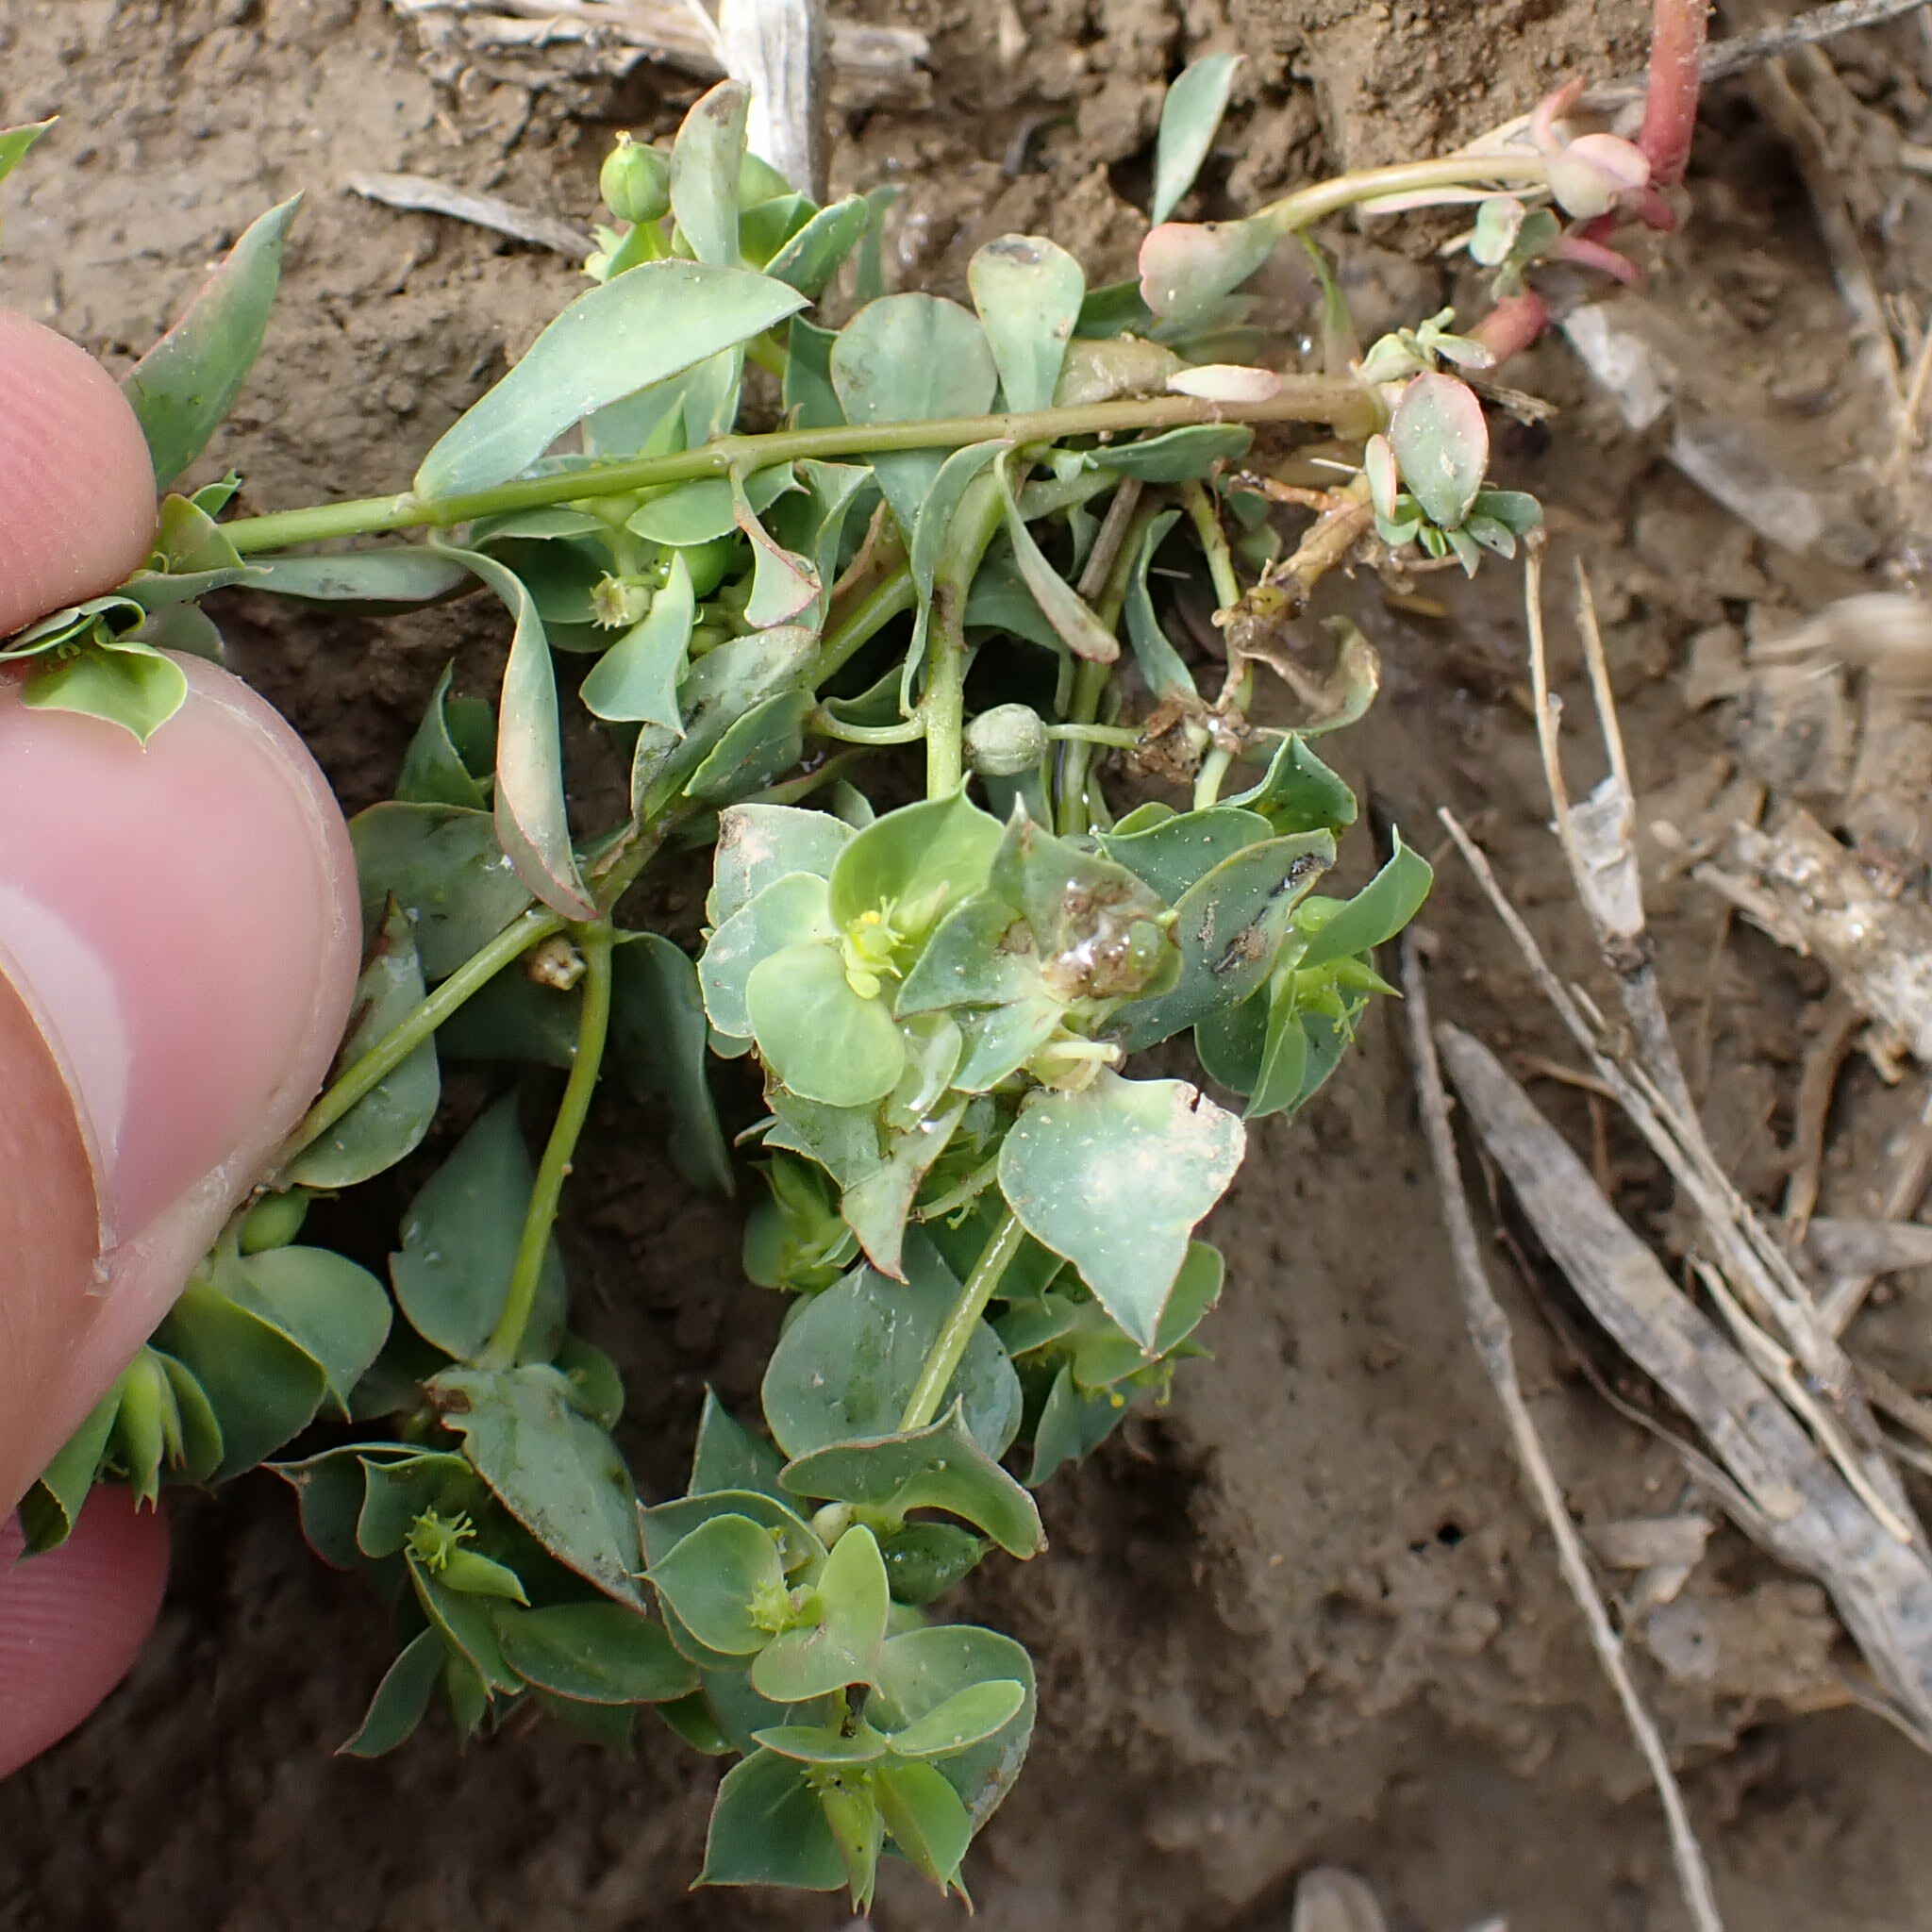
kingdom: Plantae
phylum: Tracheophyta
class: Magnoliopsida
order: Malpighiales
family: Euphorbiaceae
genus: Euphorbia
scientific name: Euphorbia falcata
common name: Sickle spurge
